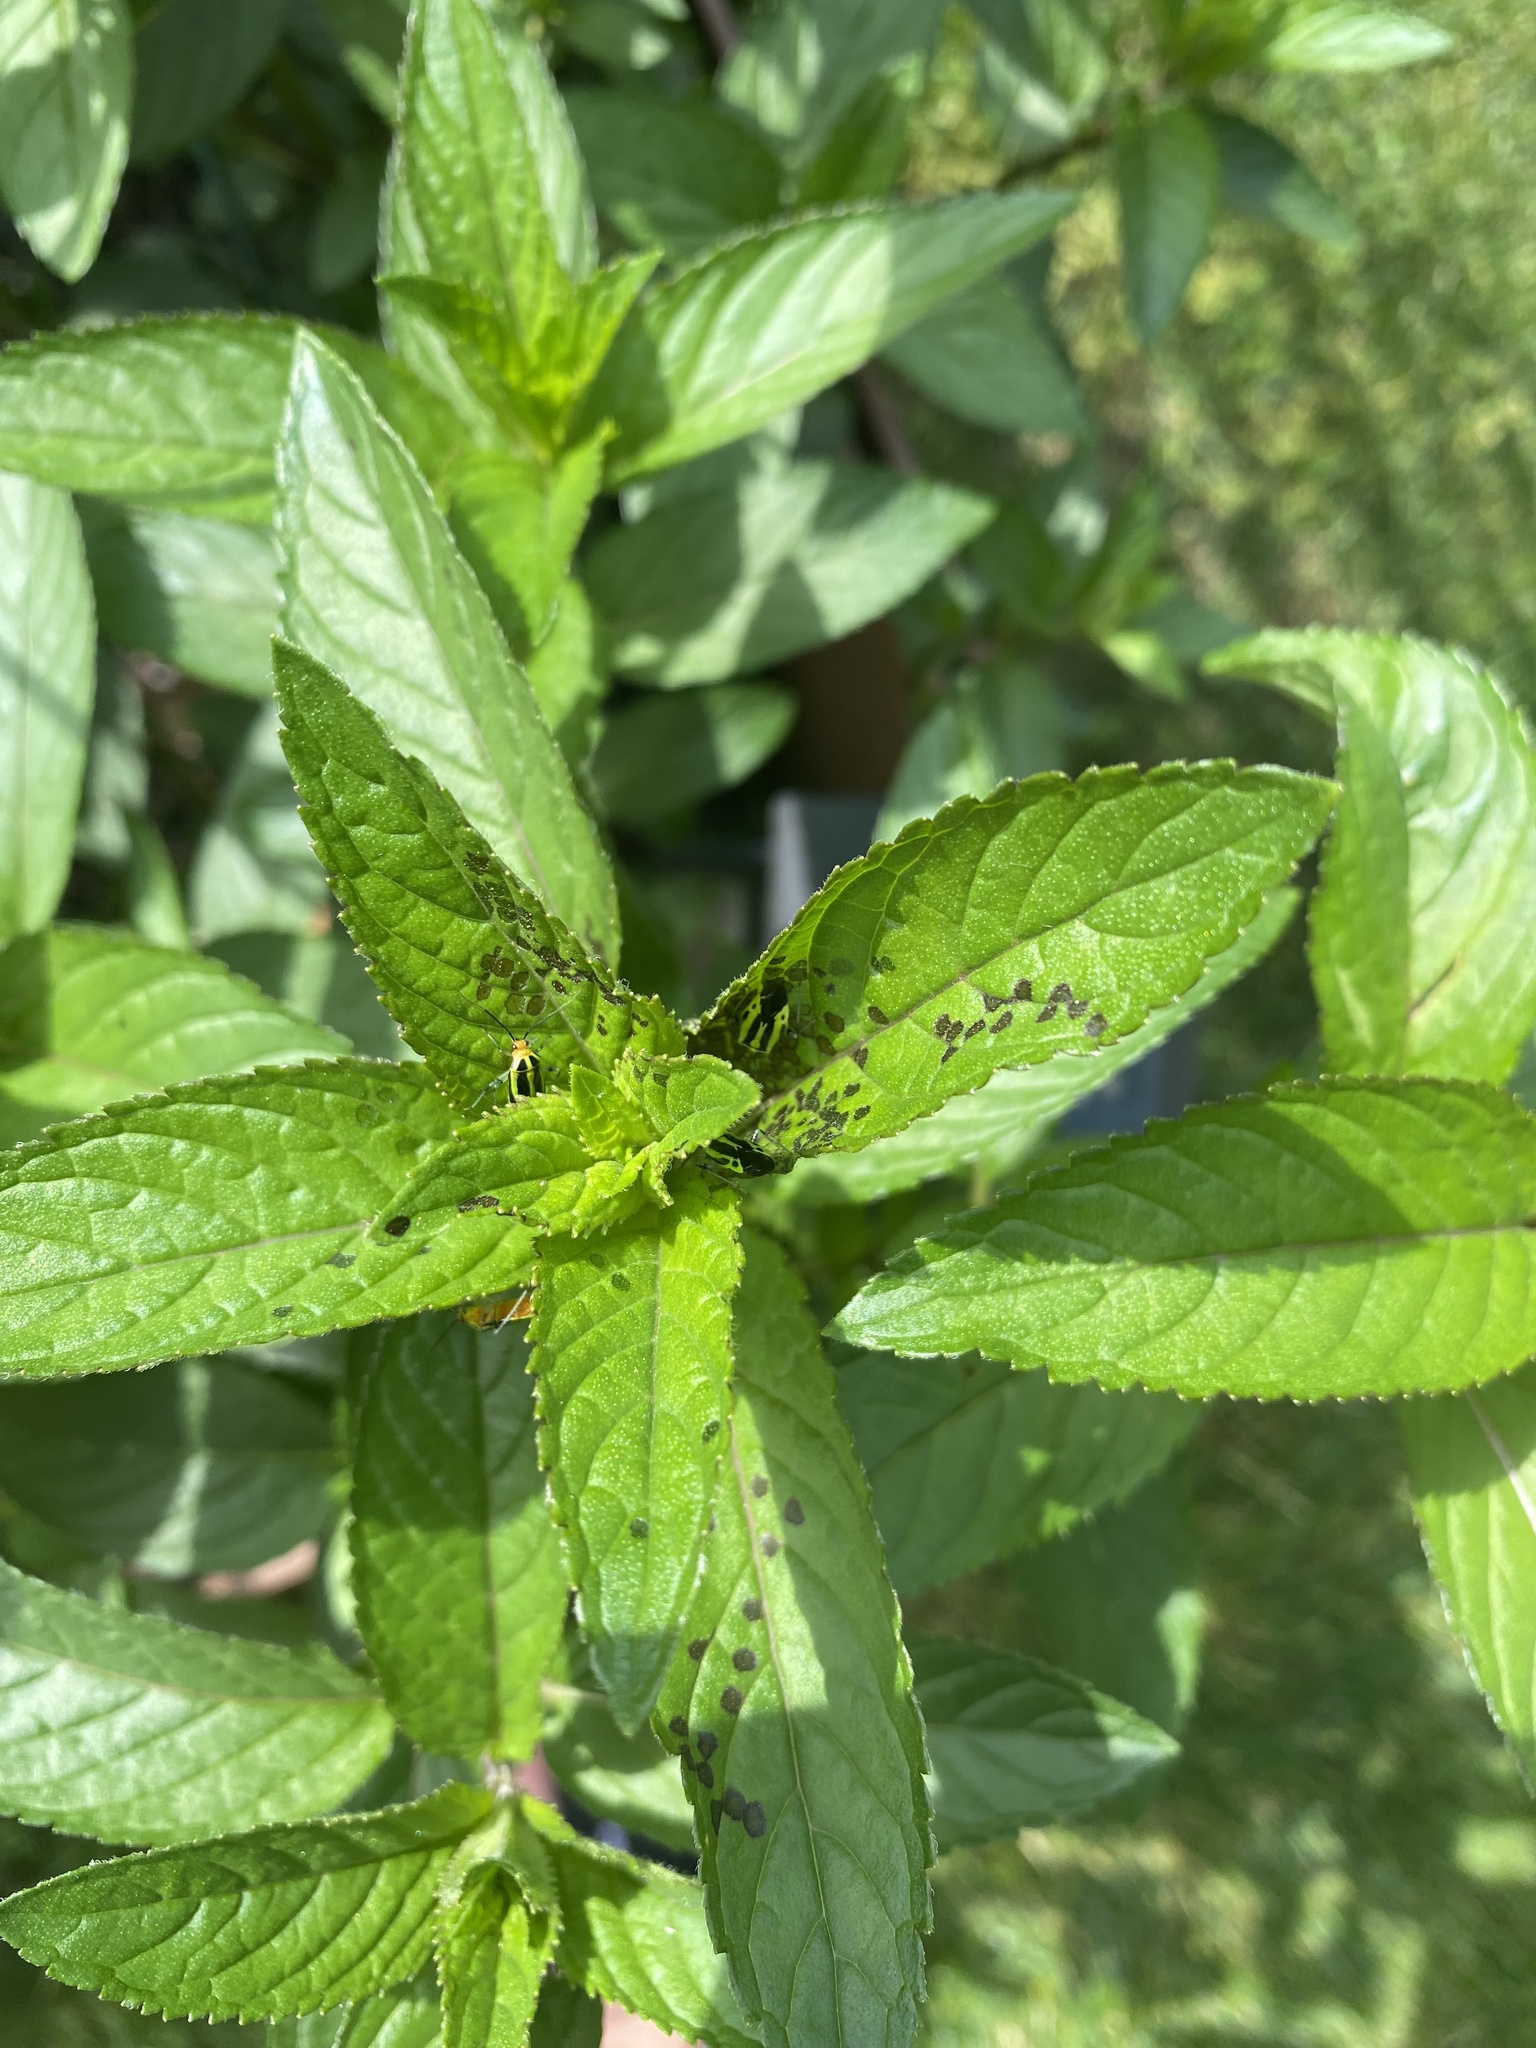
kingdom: Animalia
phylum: Arthropoda
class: Insecta
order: Hemiptera
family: Miridae
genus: Poecilocapsus
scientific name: Poecilocapsus lineatus
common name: Four-lined plant bug
